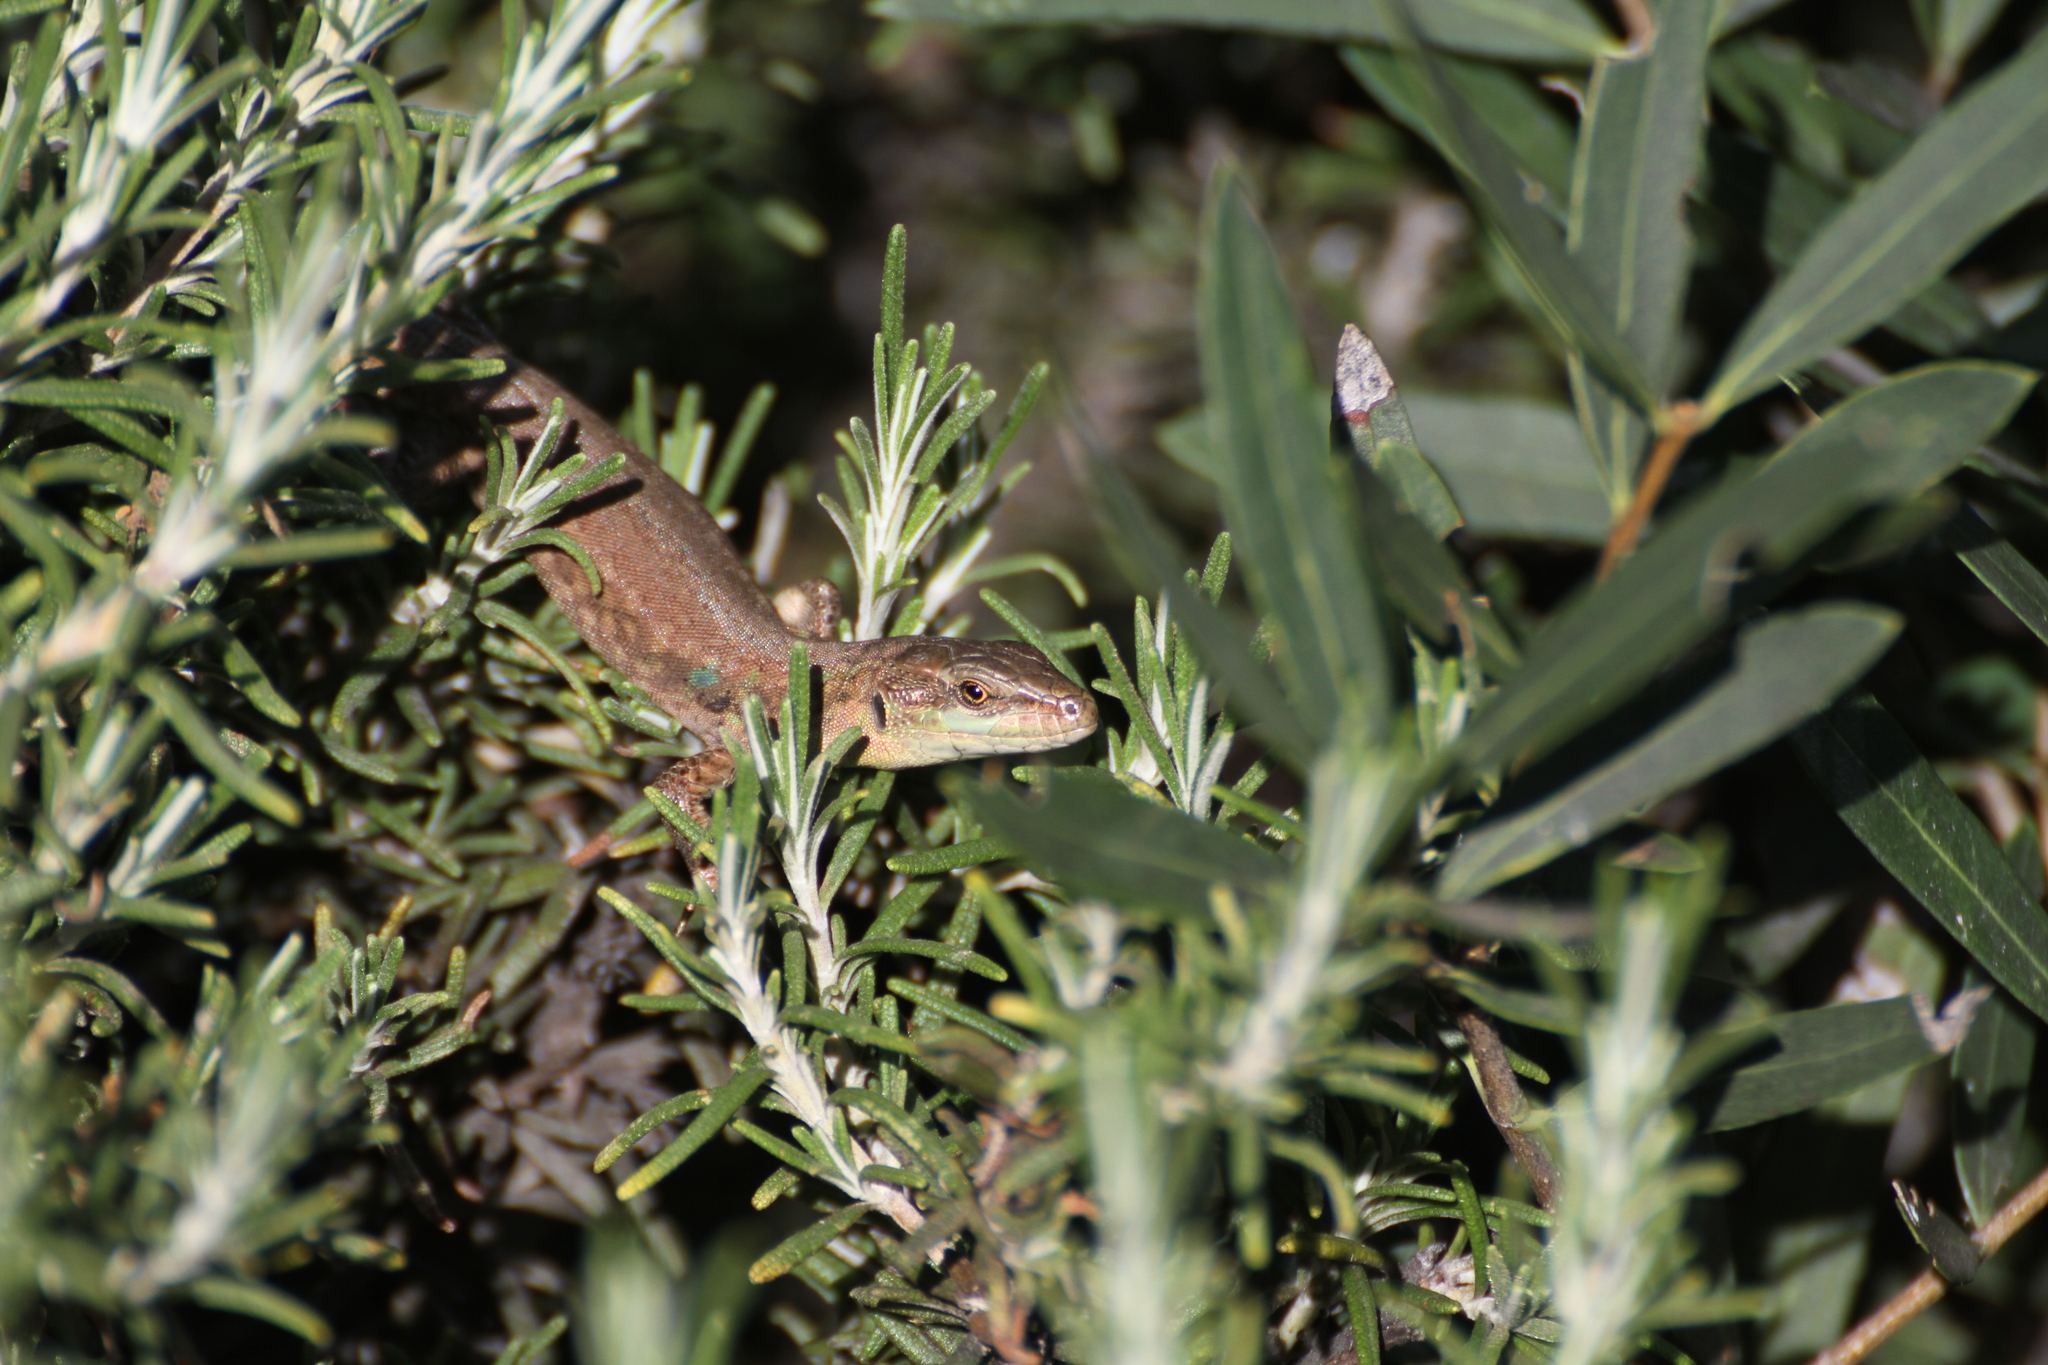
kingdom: Animalia
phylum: Chordata
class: Squamata
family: Lacertidae
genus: Podarcis
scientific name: Podarcis siculus
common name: Italian wall lizard
